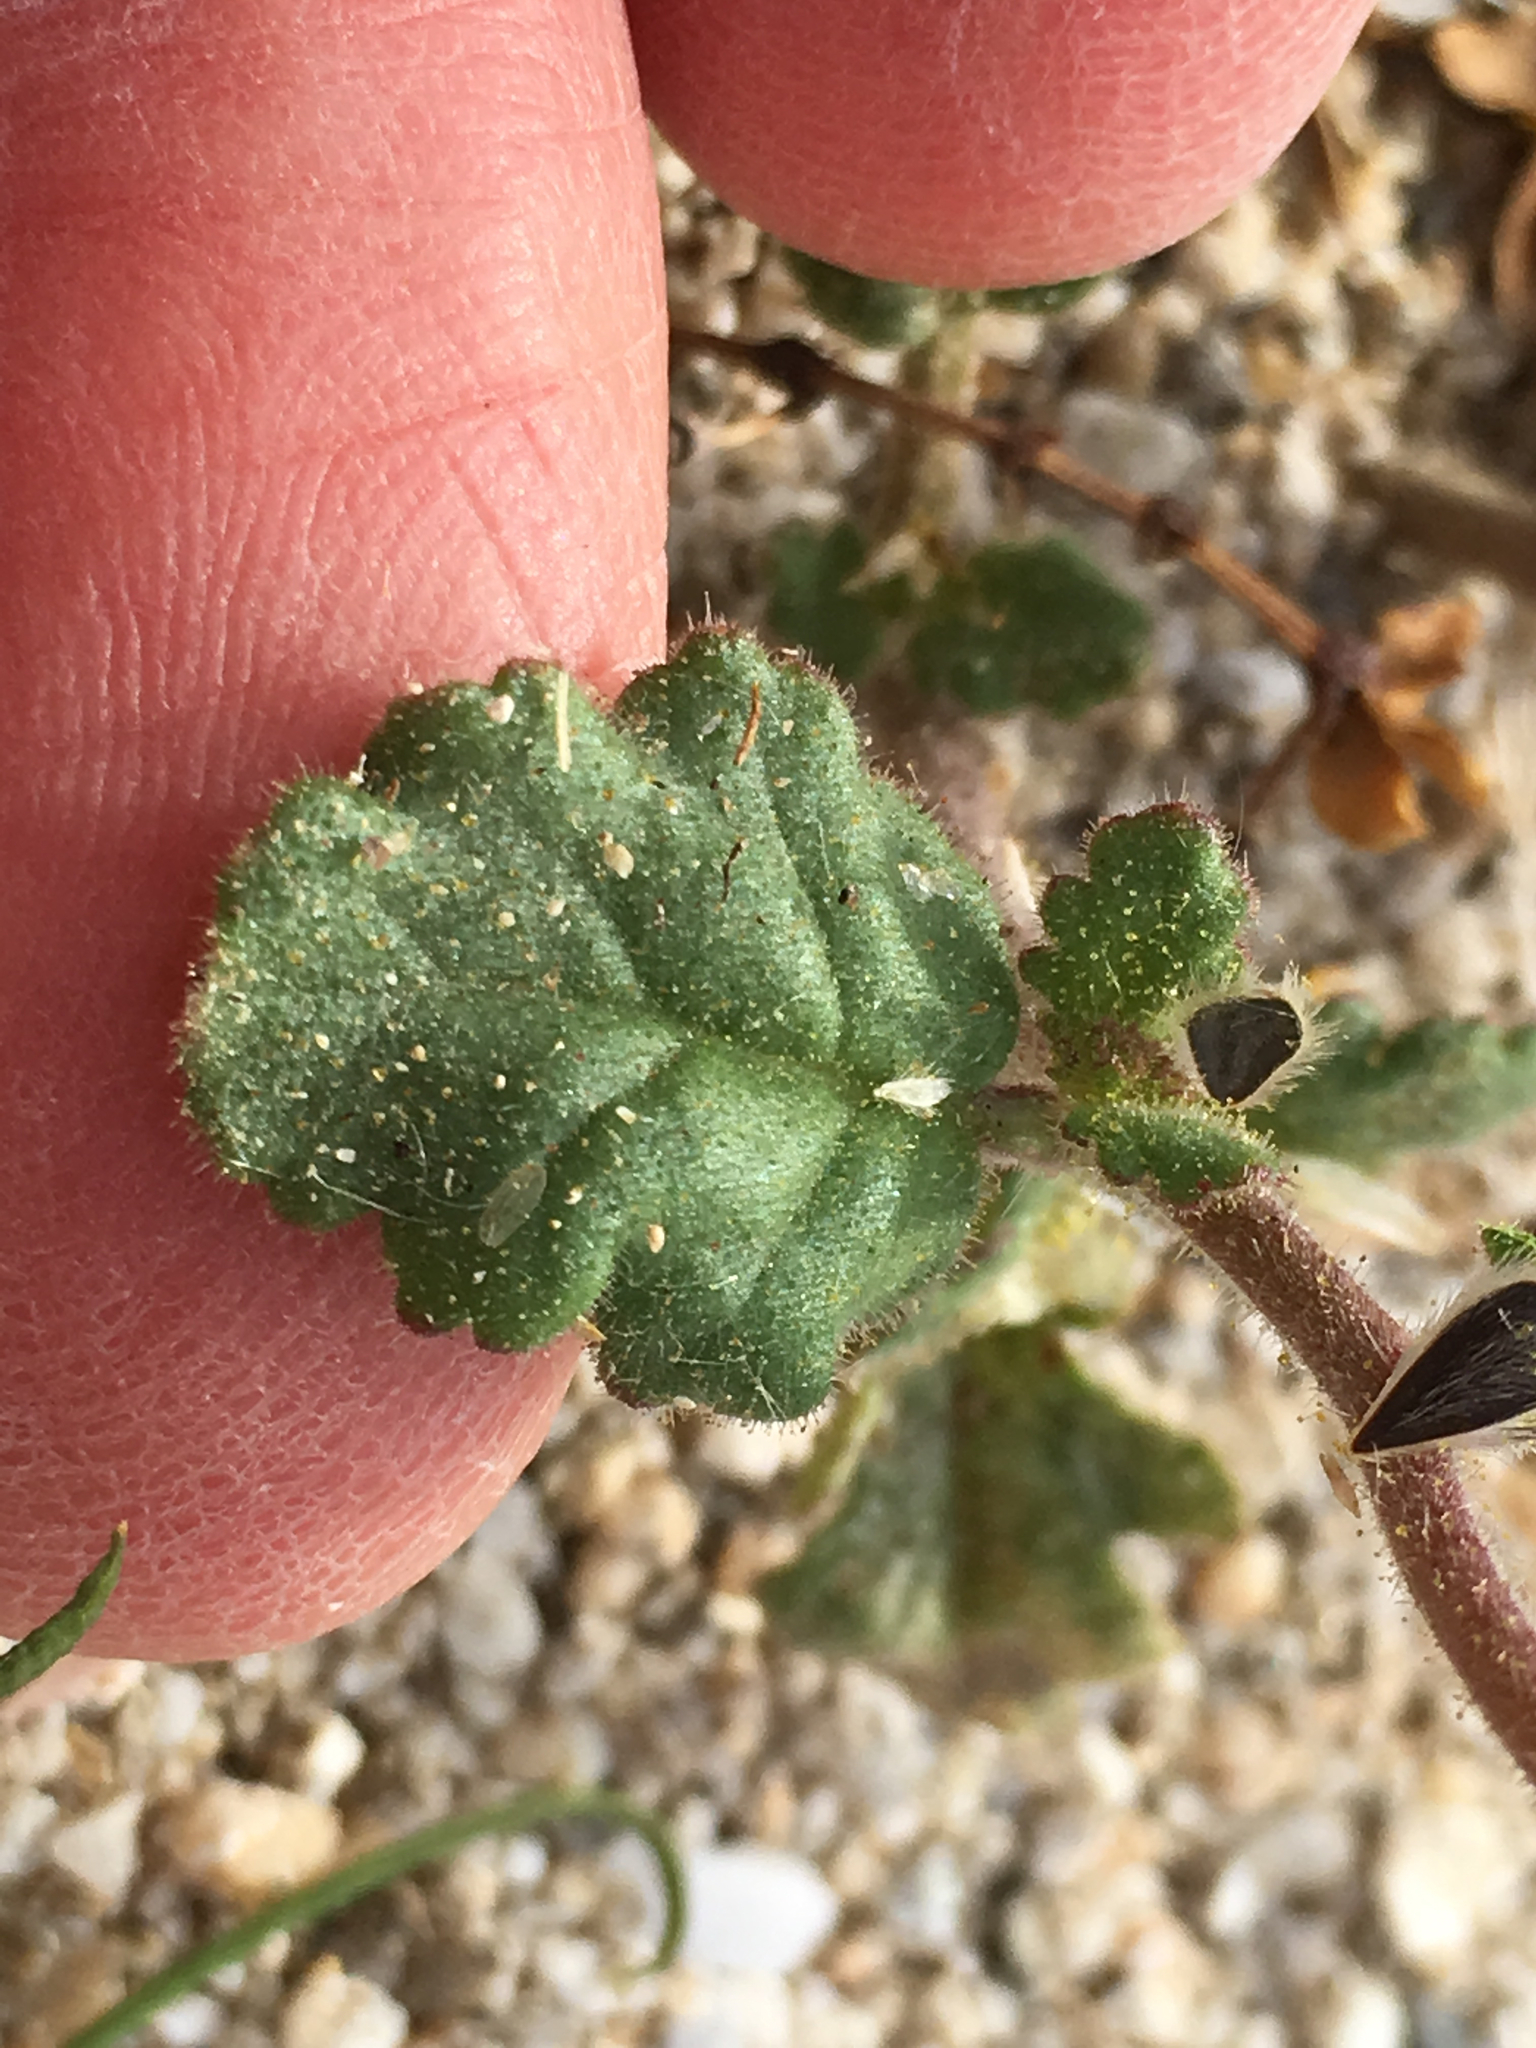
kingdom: Plantae
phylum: Tracheophyta
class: Magnoliopsida
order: Boraginales
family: Hydrophyllaceae
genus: Phacelia
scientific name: Phacelia minutiflora
